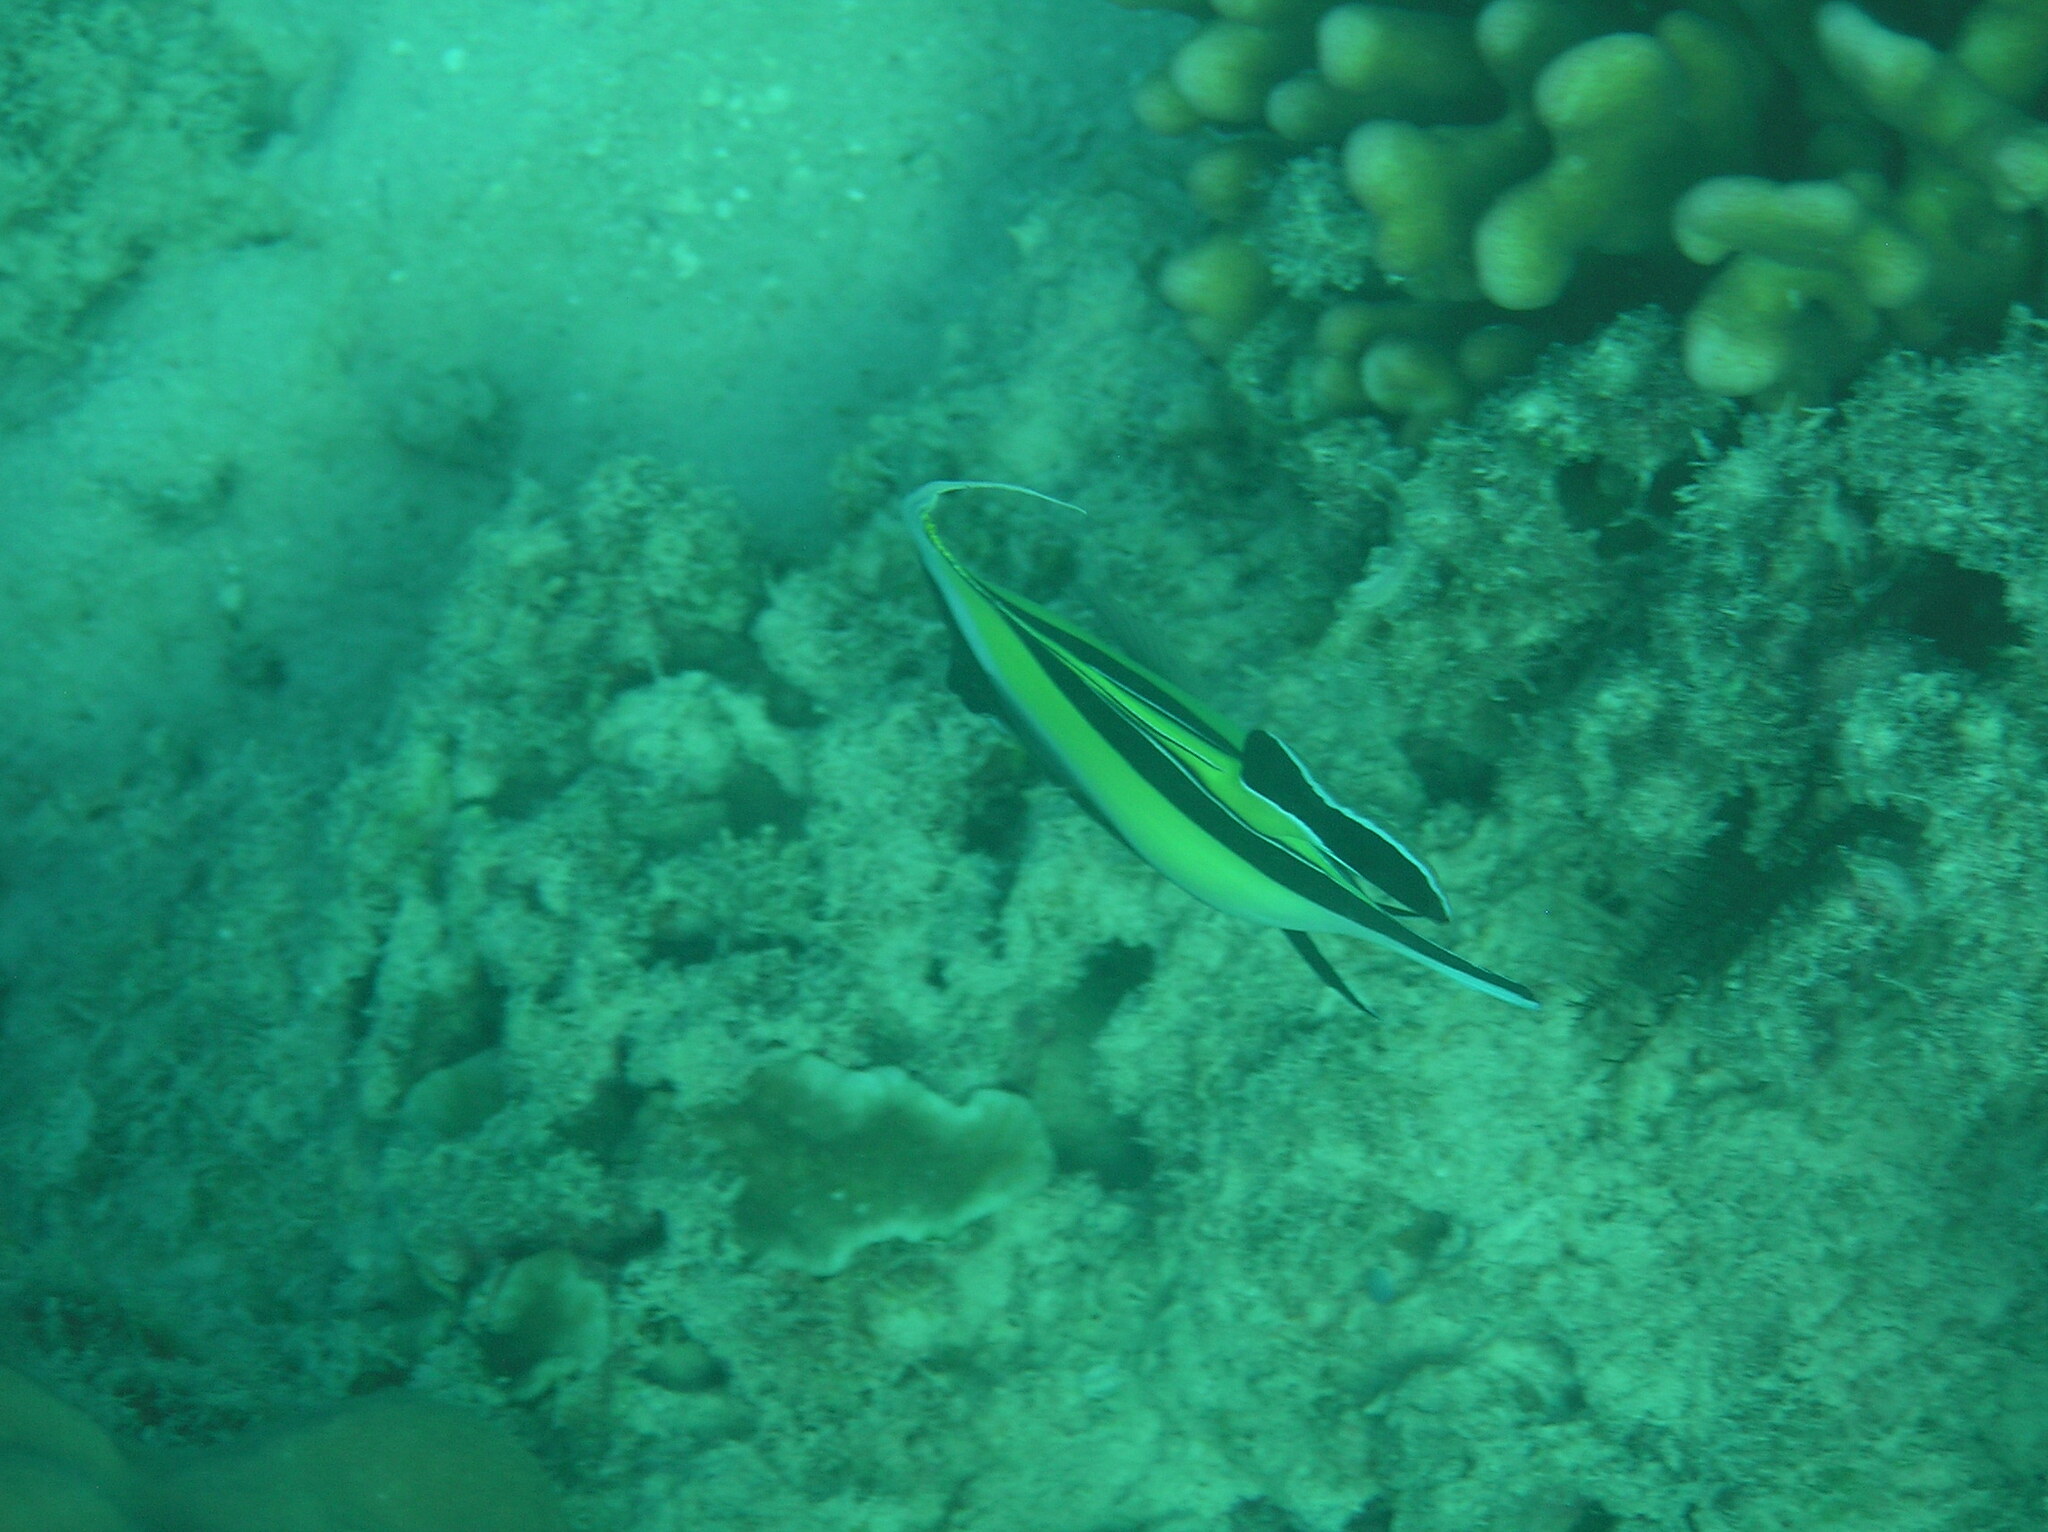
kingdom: Animalia
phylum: Chordata
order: Perciformes
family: Zanclidae
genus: Zanclus
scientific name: Zanclus cornutus
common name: Moorish idol
